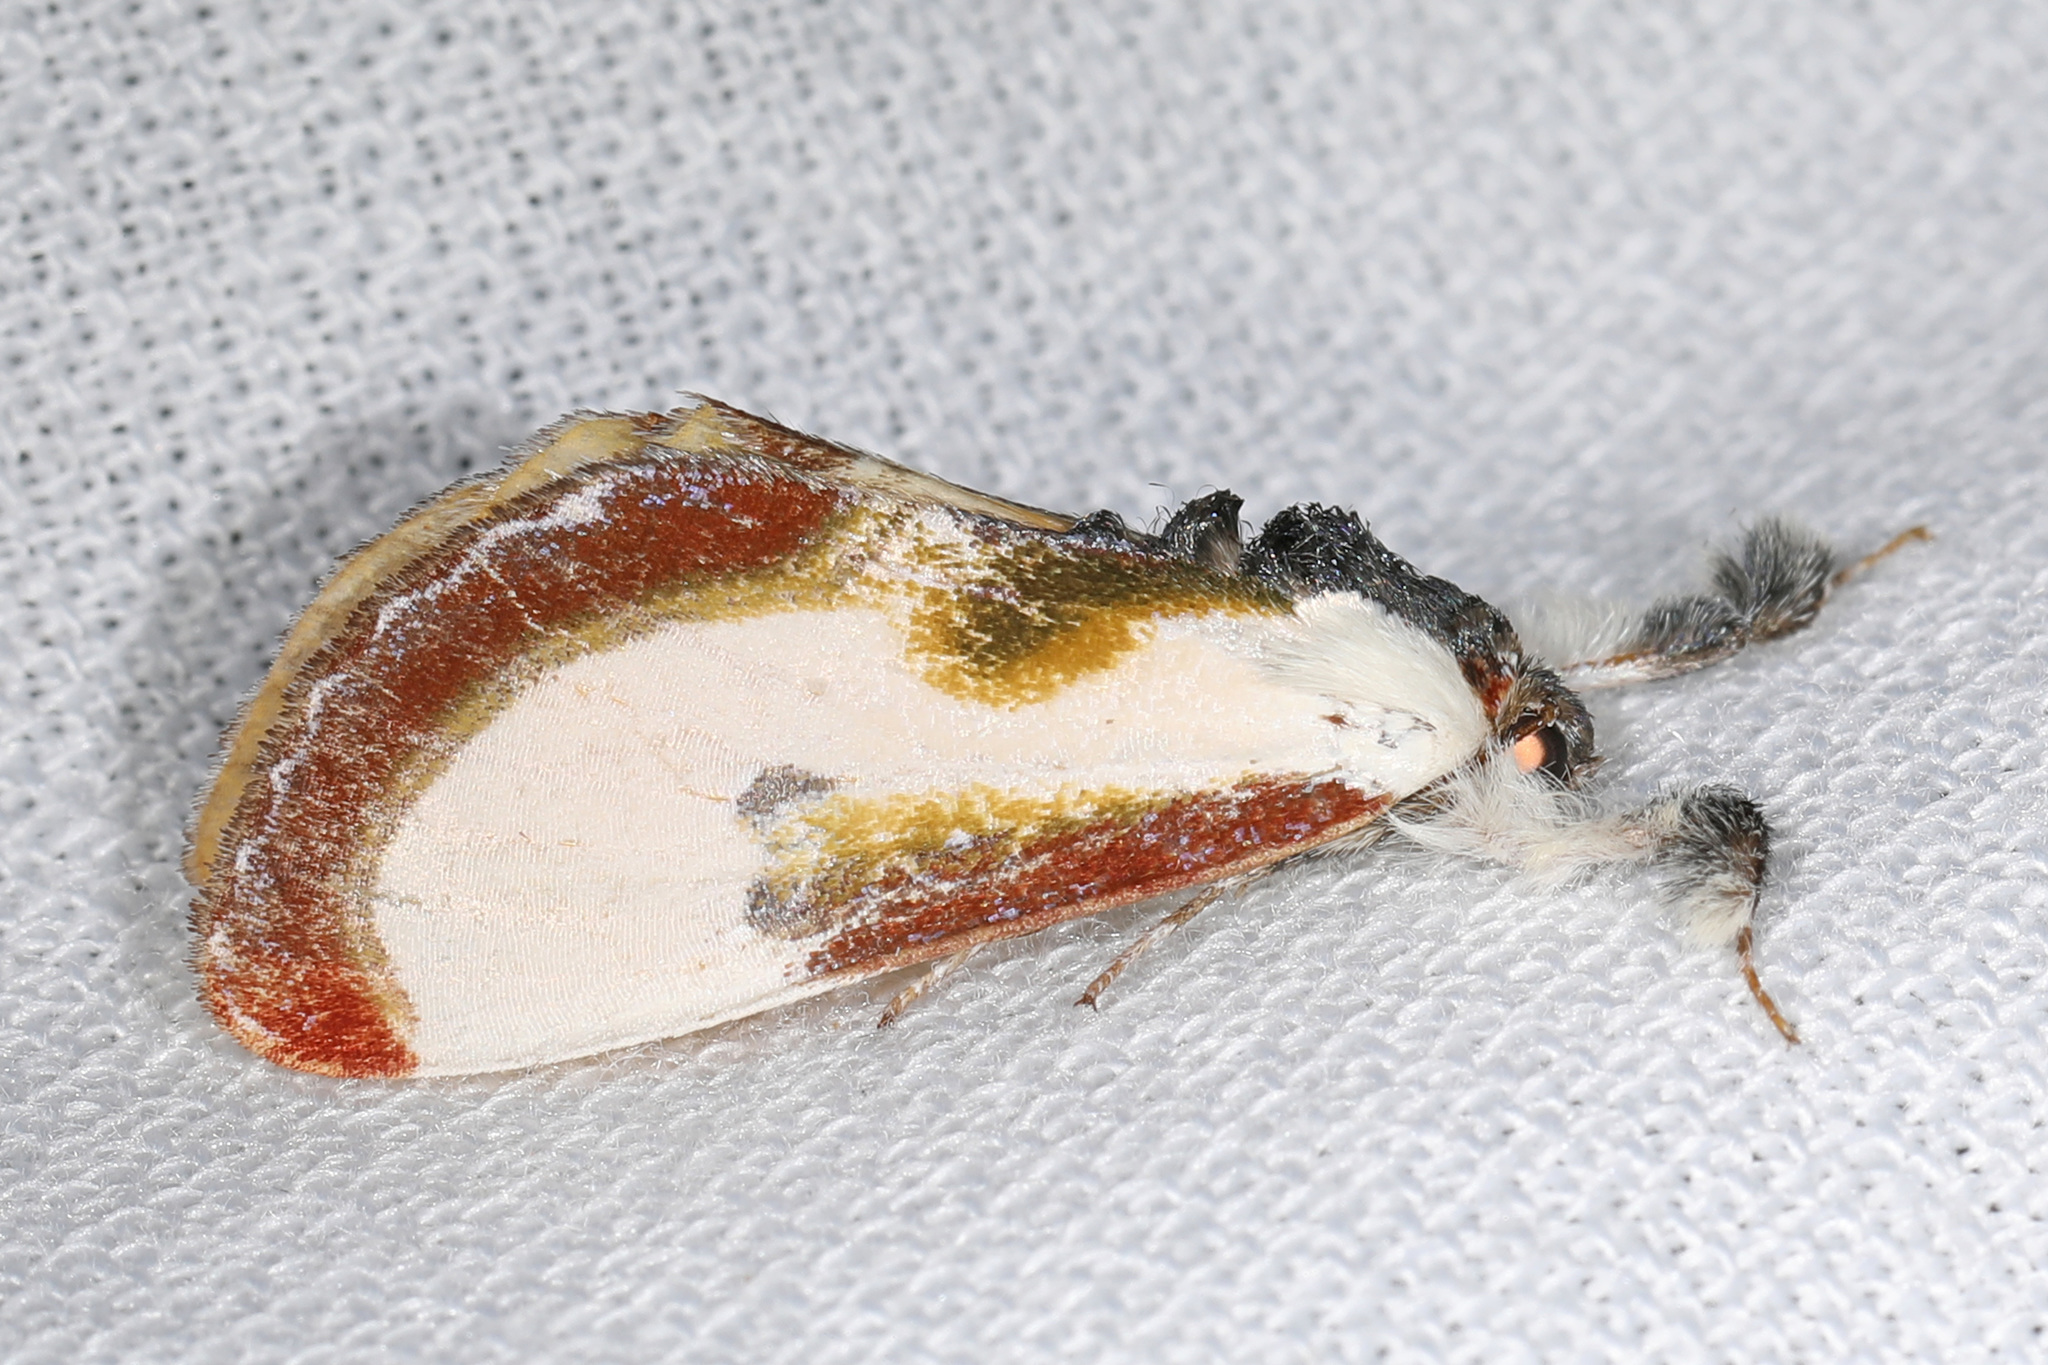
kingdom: Animalia
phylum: Arthropoda
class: Insecta
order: Lepidoptera
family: Noctuidae
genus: Eudryas
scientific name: Eudryas grata
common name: Beautiful wood-nymph
